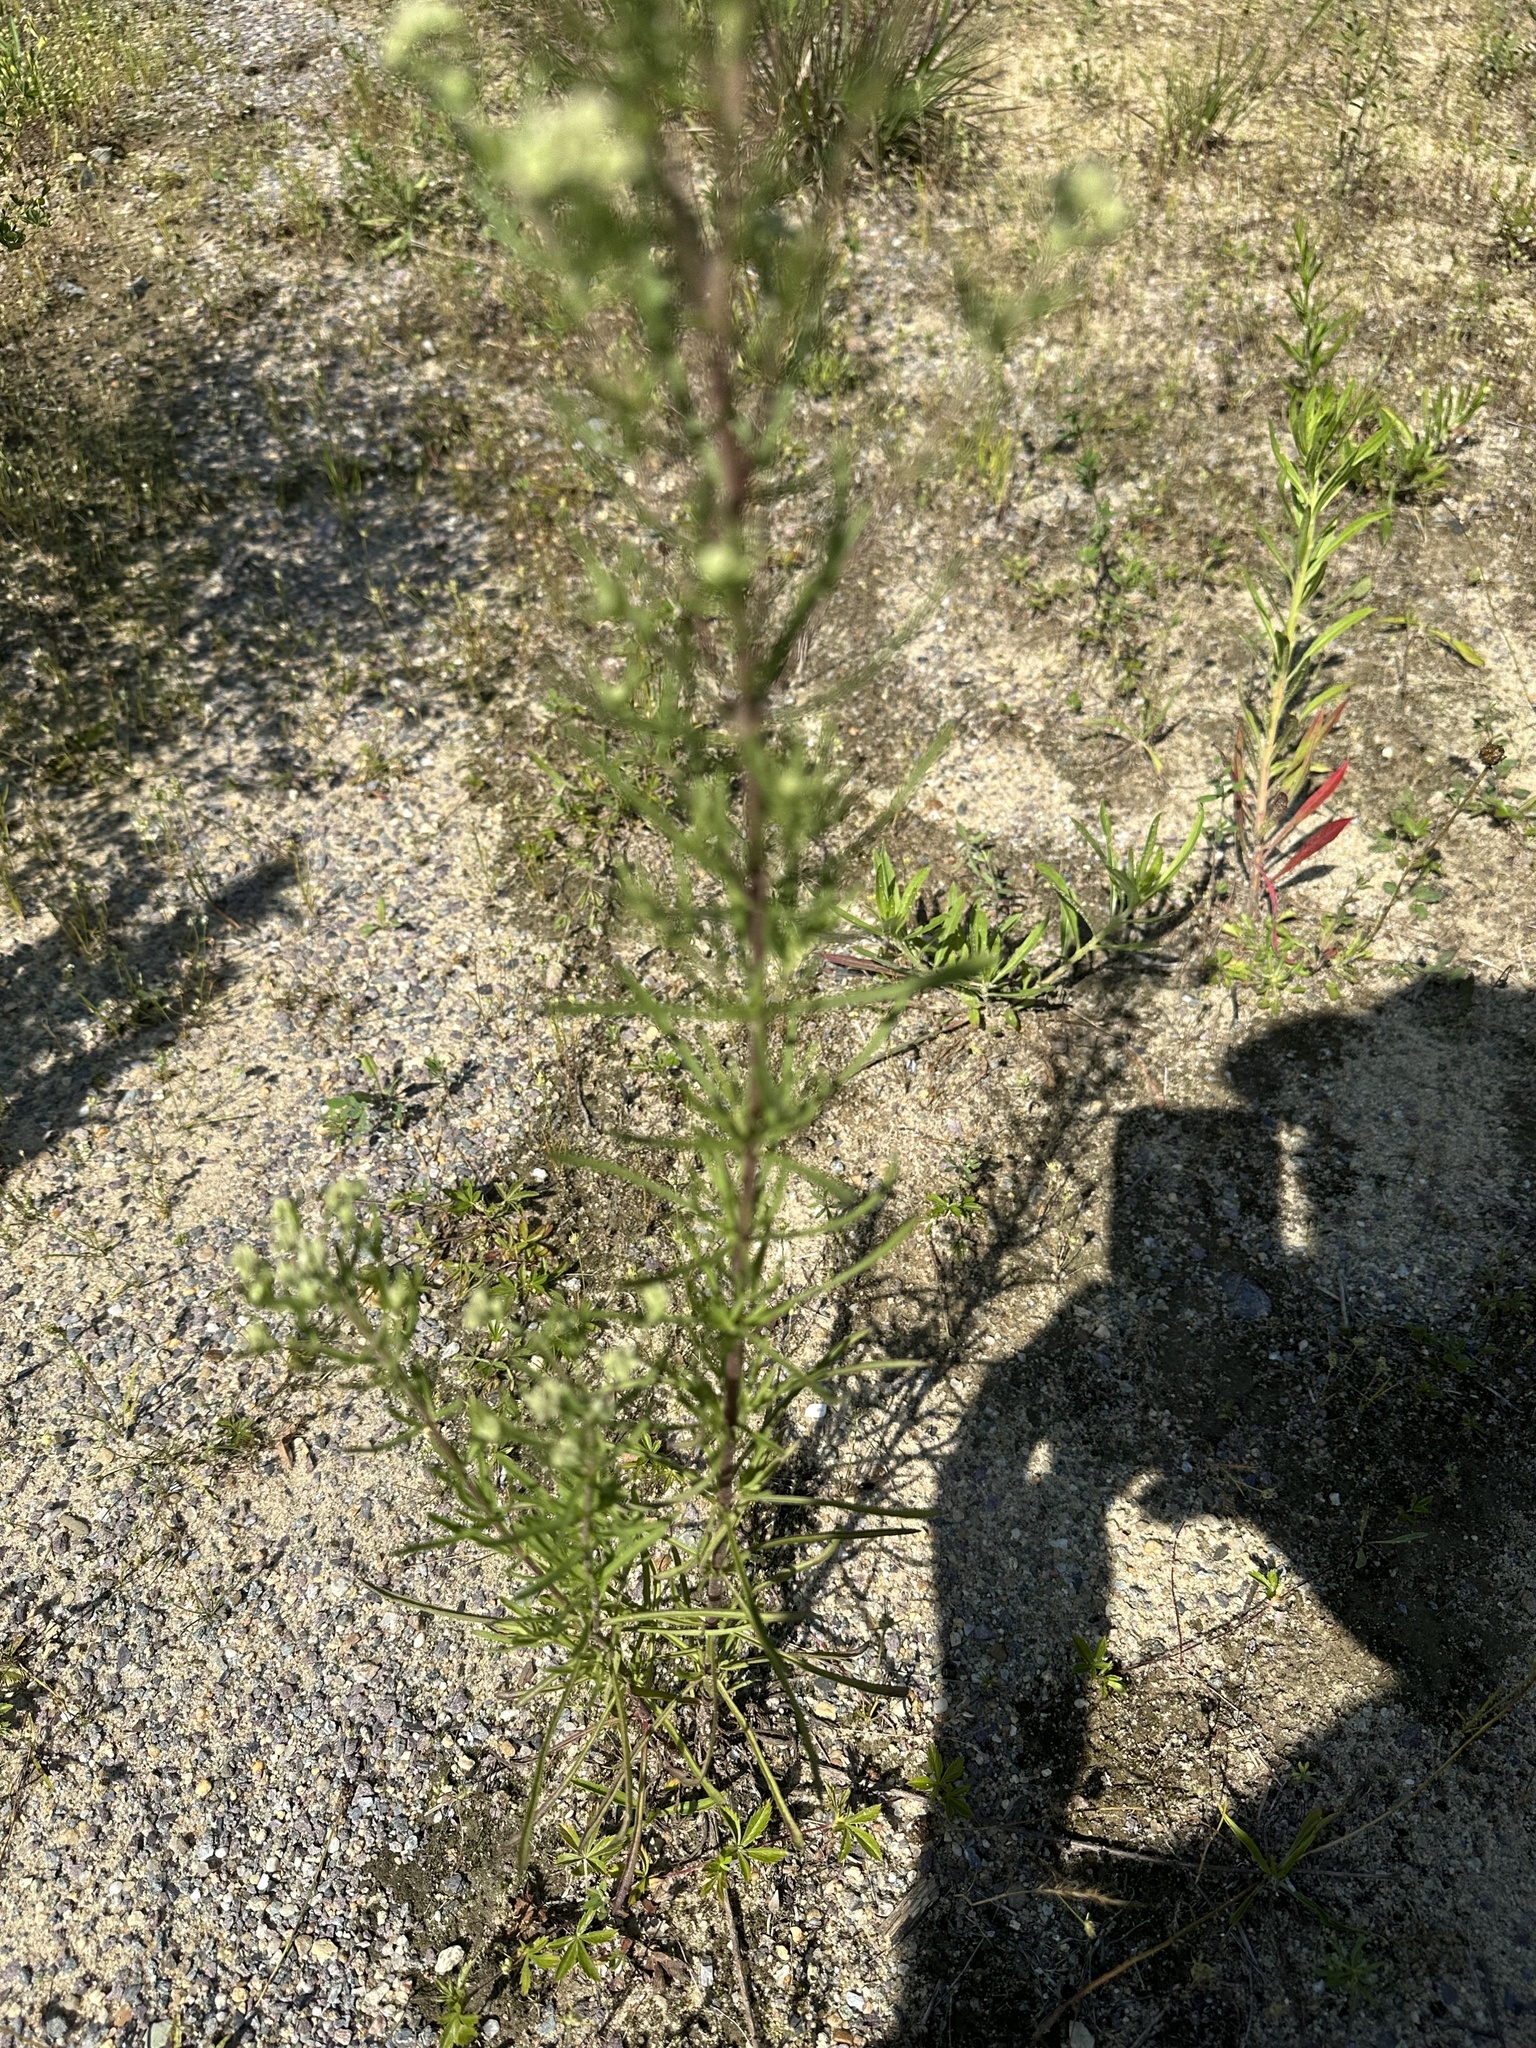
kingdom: Plantae
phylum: Tracheophyta
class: Magnoliopsida
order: Asterales
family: Asteraceae
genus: Eupatorium
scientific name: Eupatorium hyssopifolium
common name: Hyssop-leaf thoroughwort
